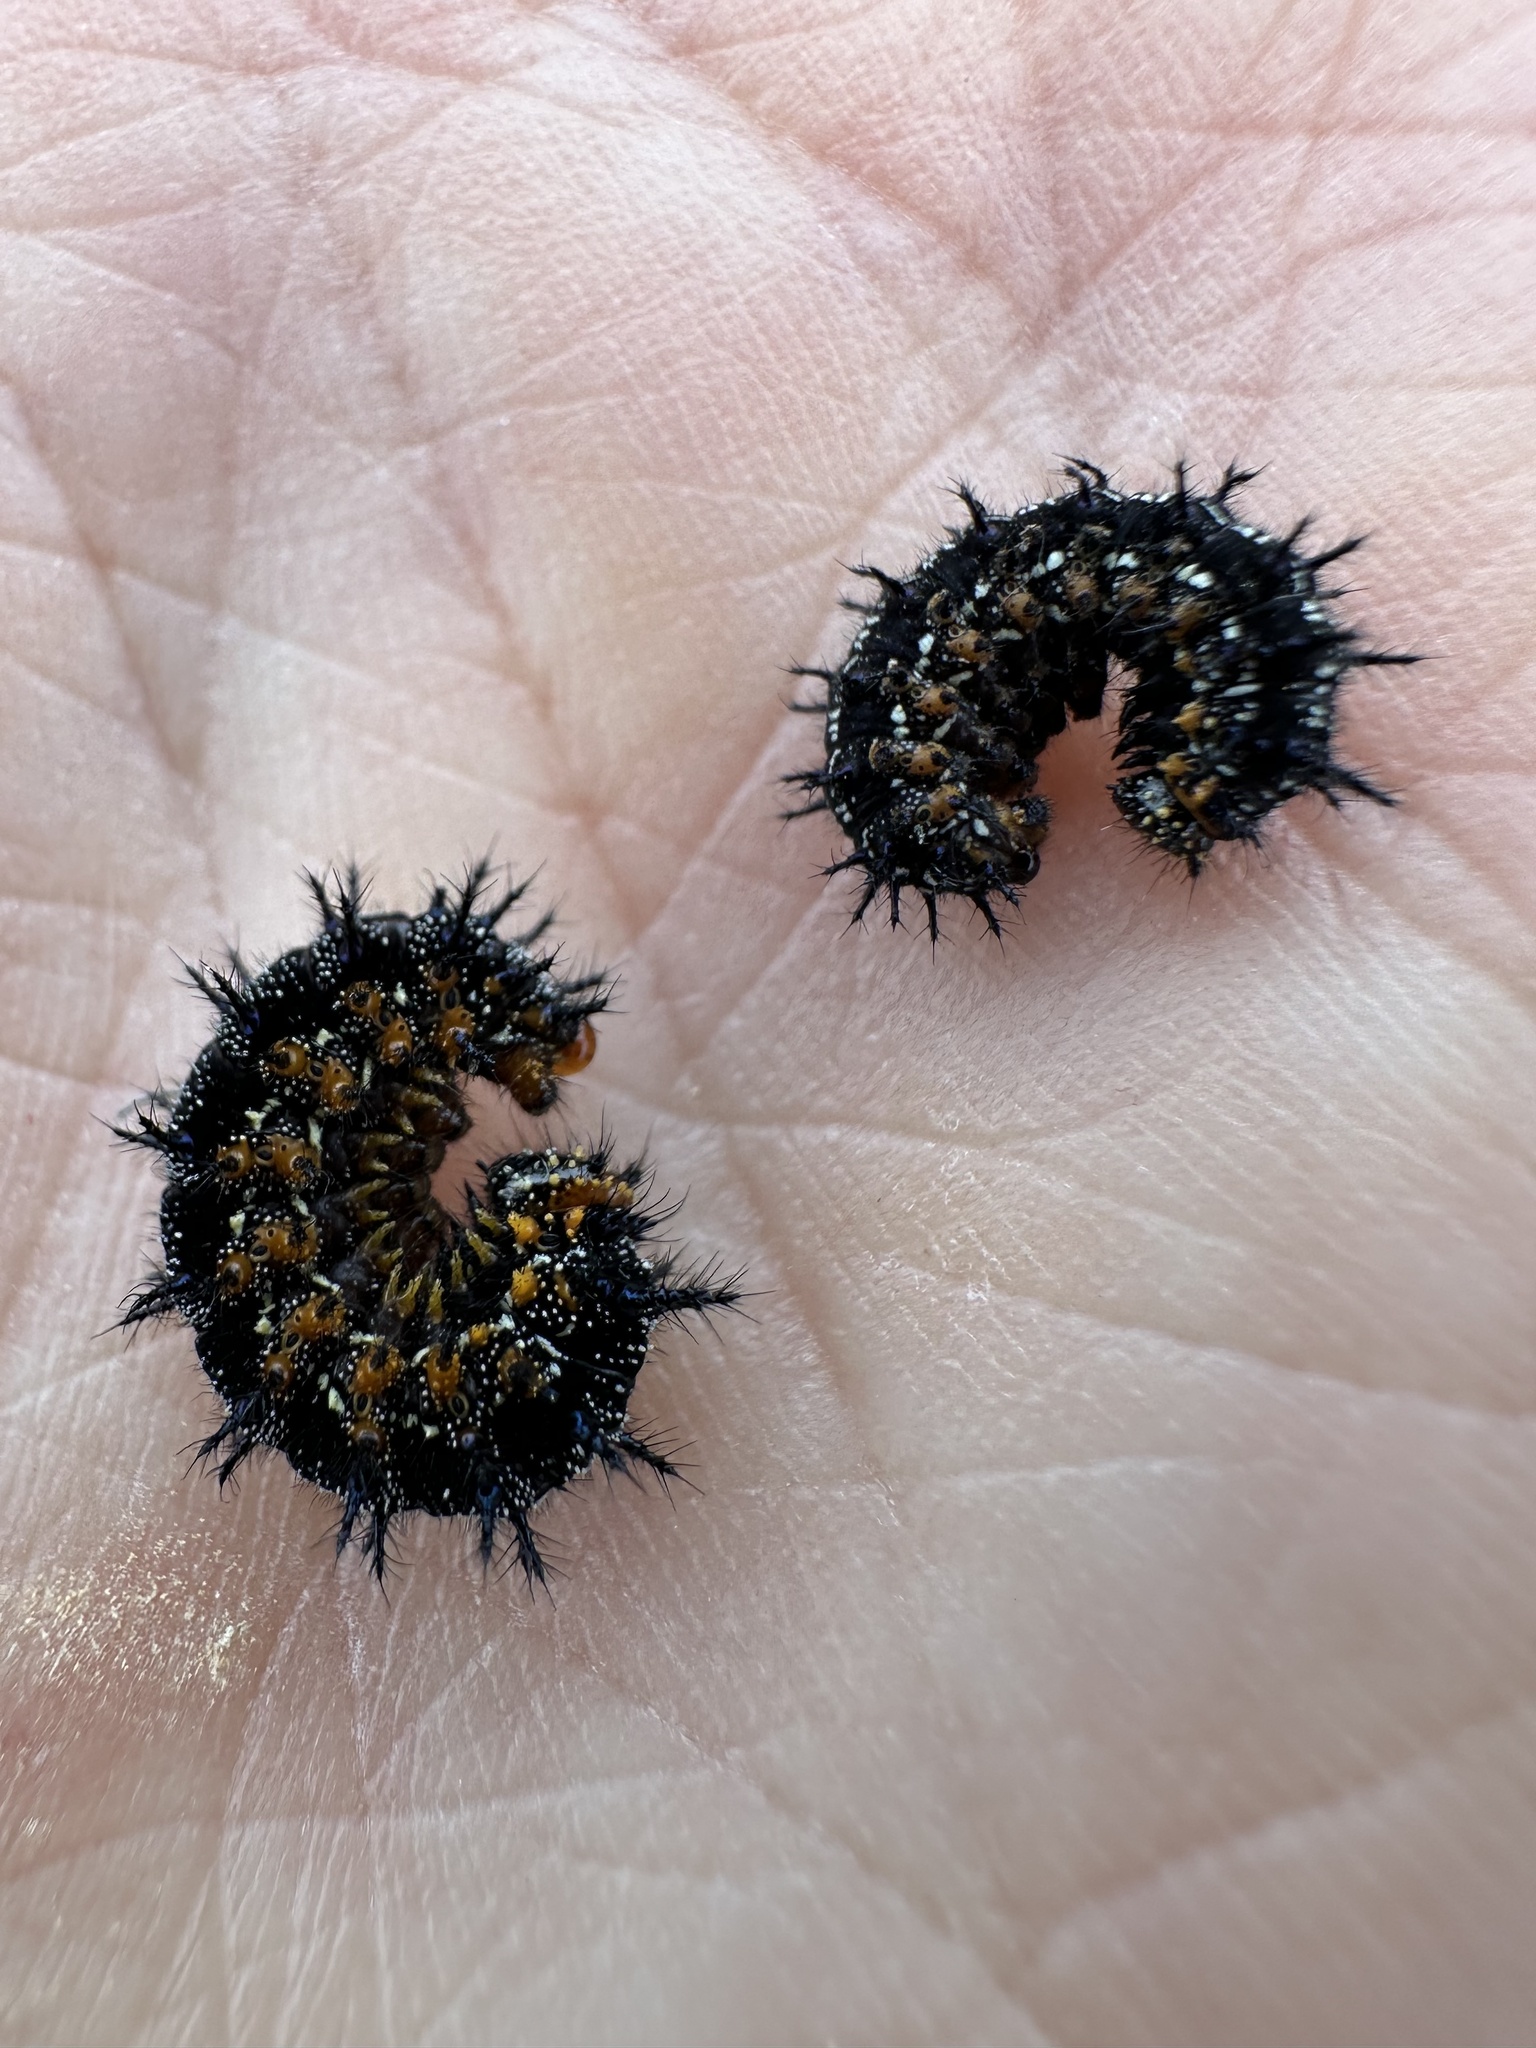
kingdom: Animalia
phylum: Arthropoda
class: Insecta
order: Lepidoptera
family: Nymphalidae
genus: Junonia
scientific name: Junonia grisea
